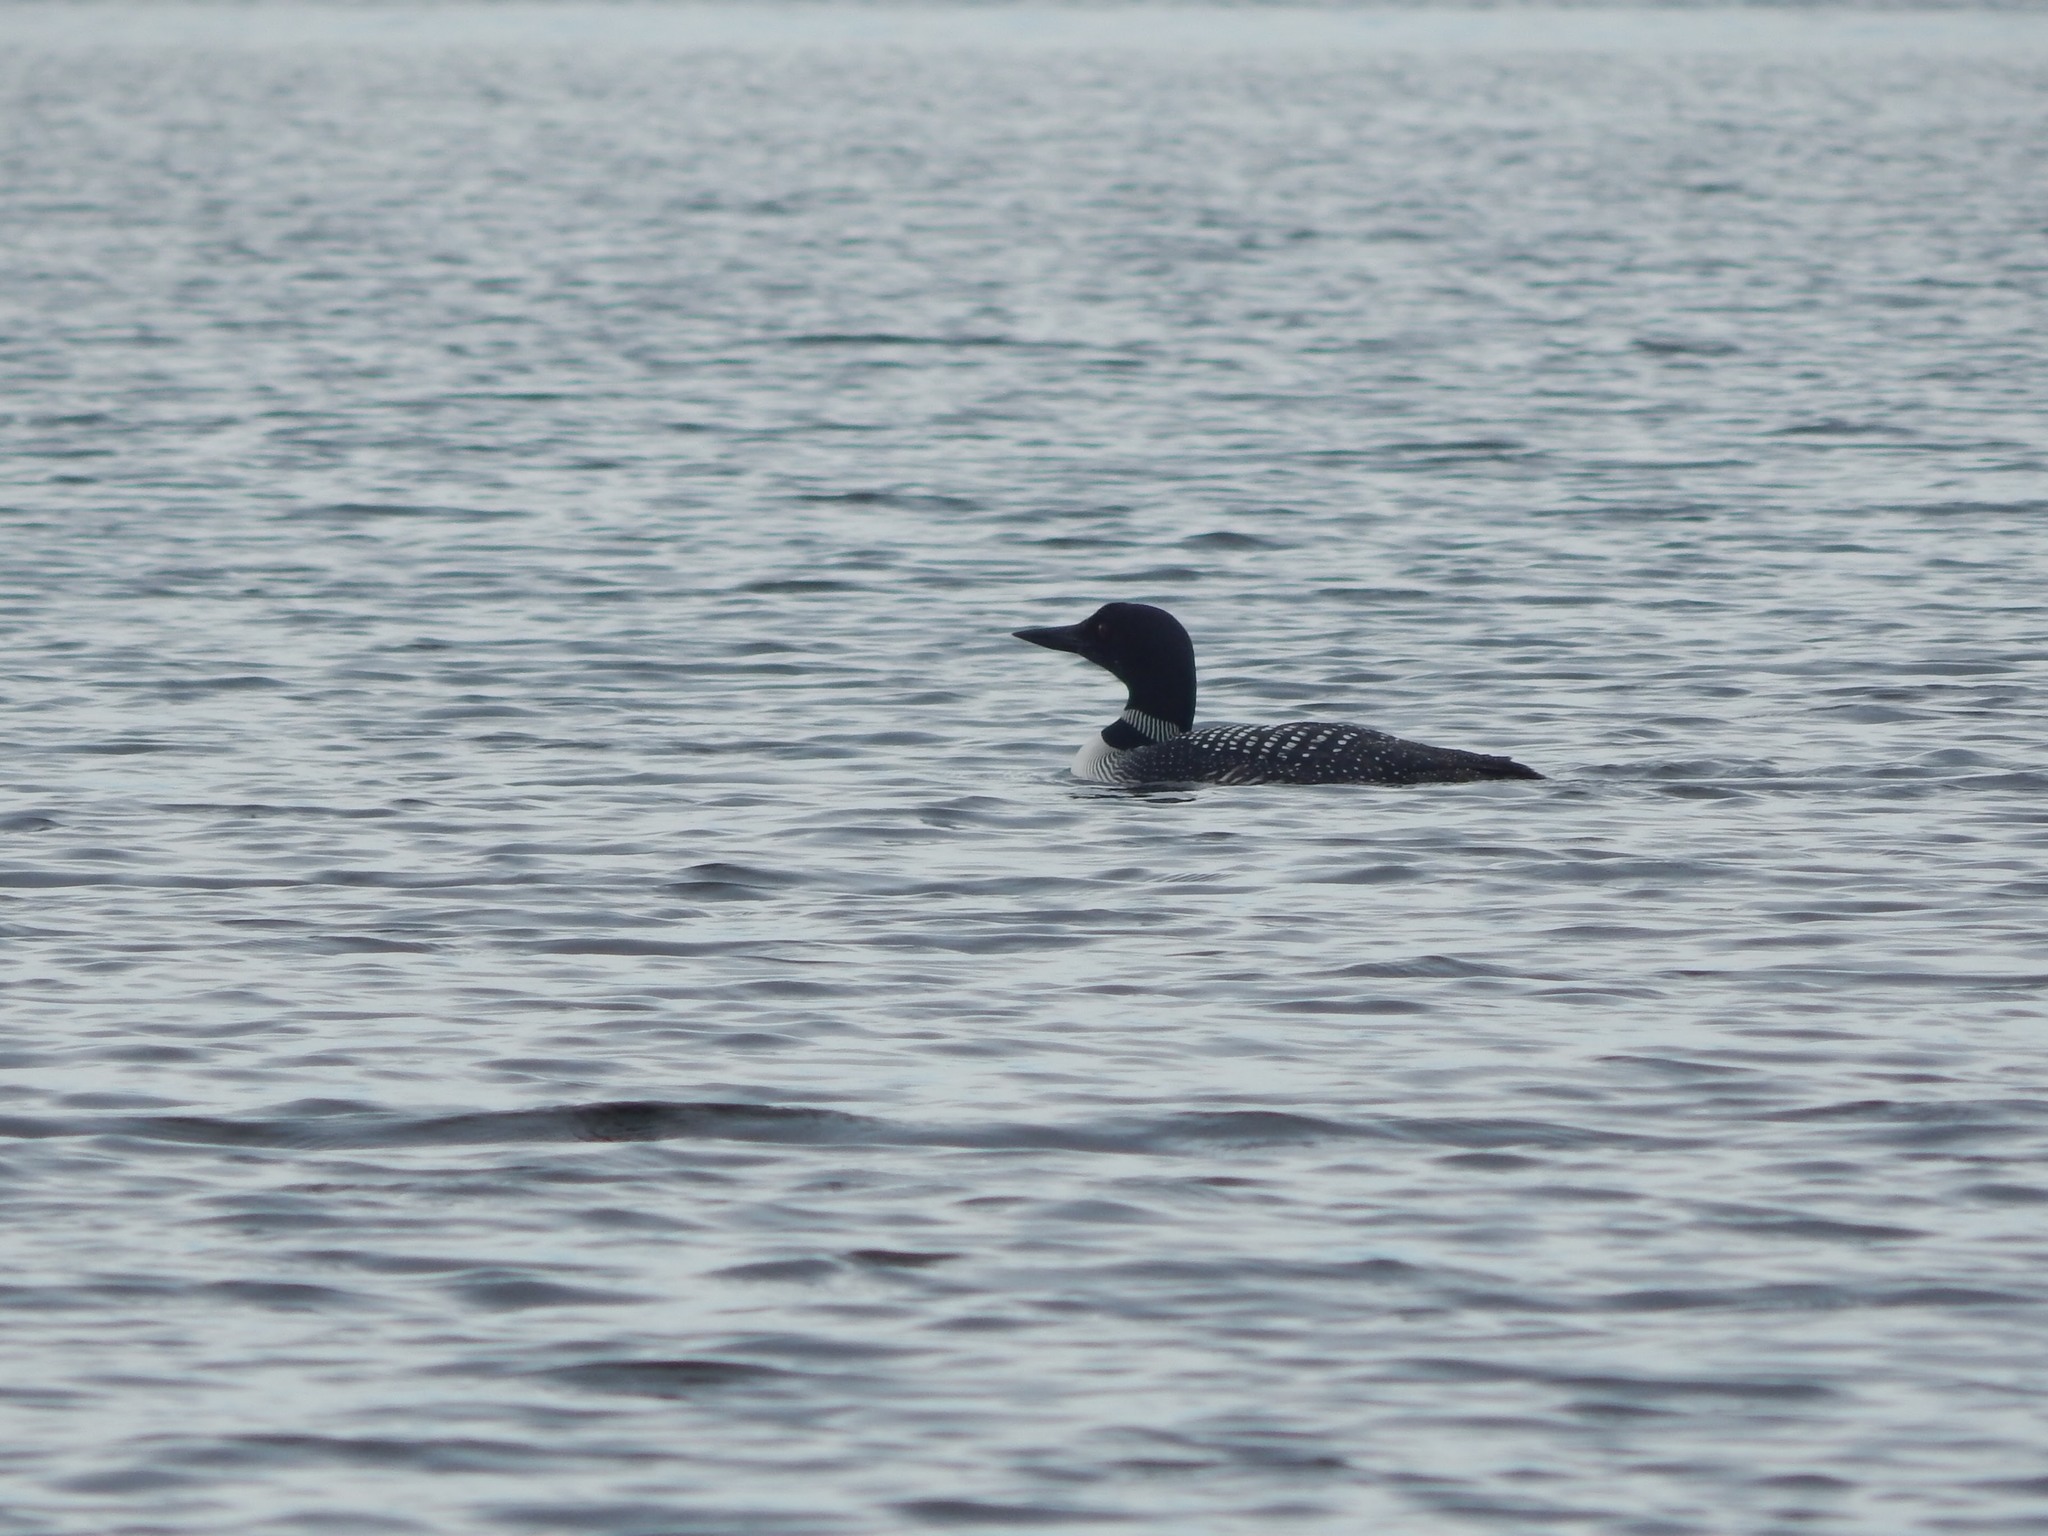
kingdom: Animalia
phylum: Chordata
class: Aves
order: Gaviiformes
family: Gaviidae
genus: Gavia
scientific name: Gavia immer
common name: Common loon
